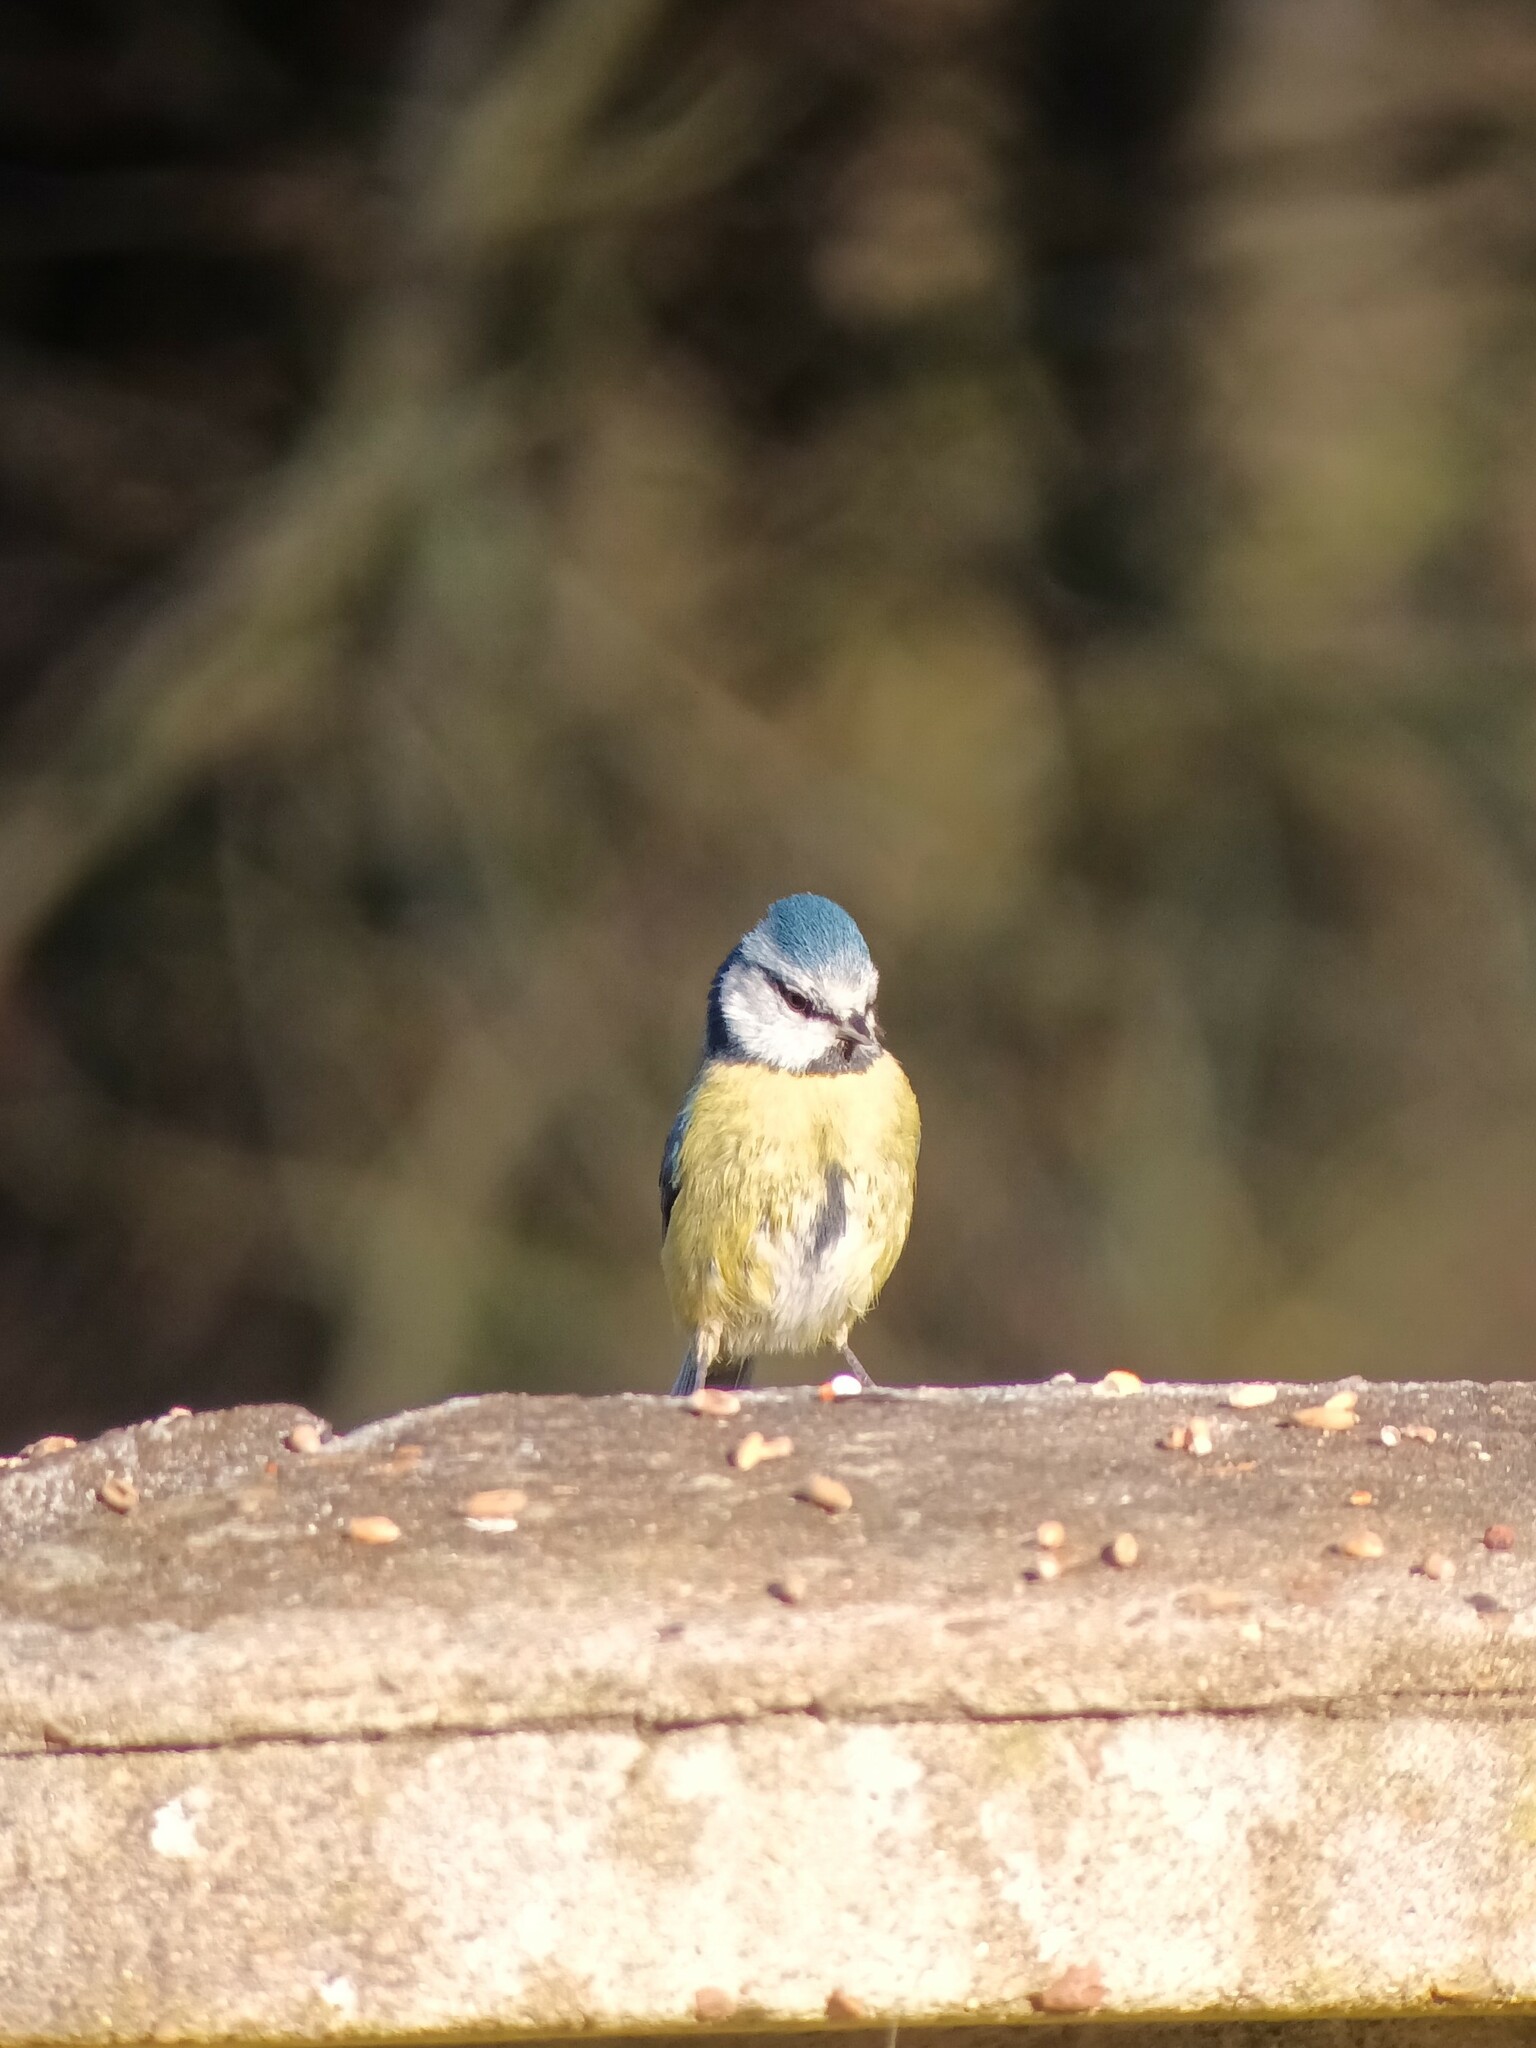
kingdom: Animalia
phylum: Chordata
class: Aves
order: Passeriformes
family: Paridae
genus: Cyanistes
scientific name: Cyanistes caeruleus
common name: Eurasian blue tit
